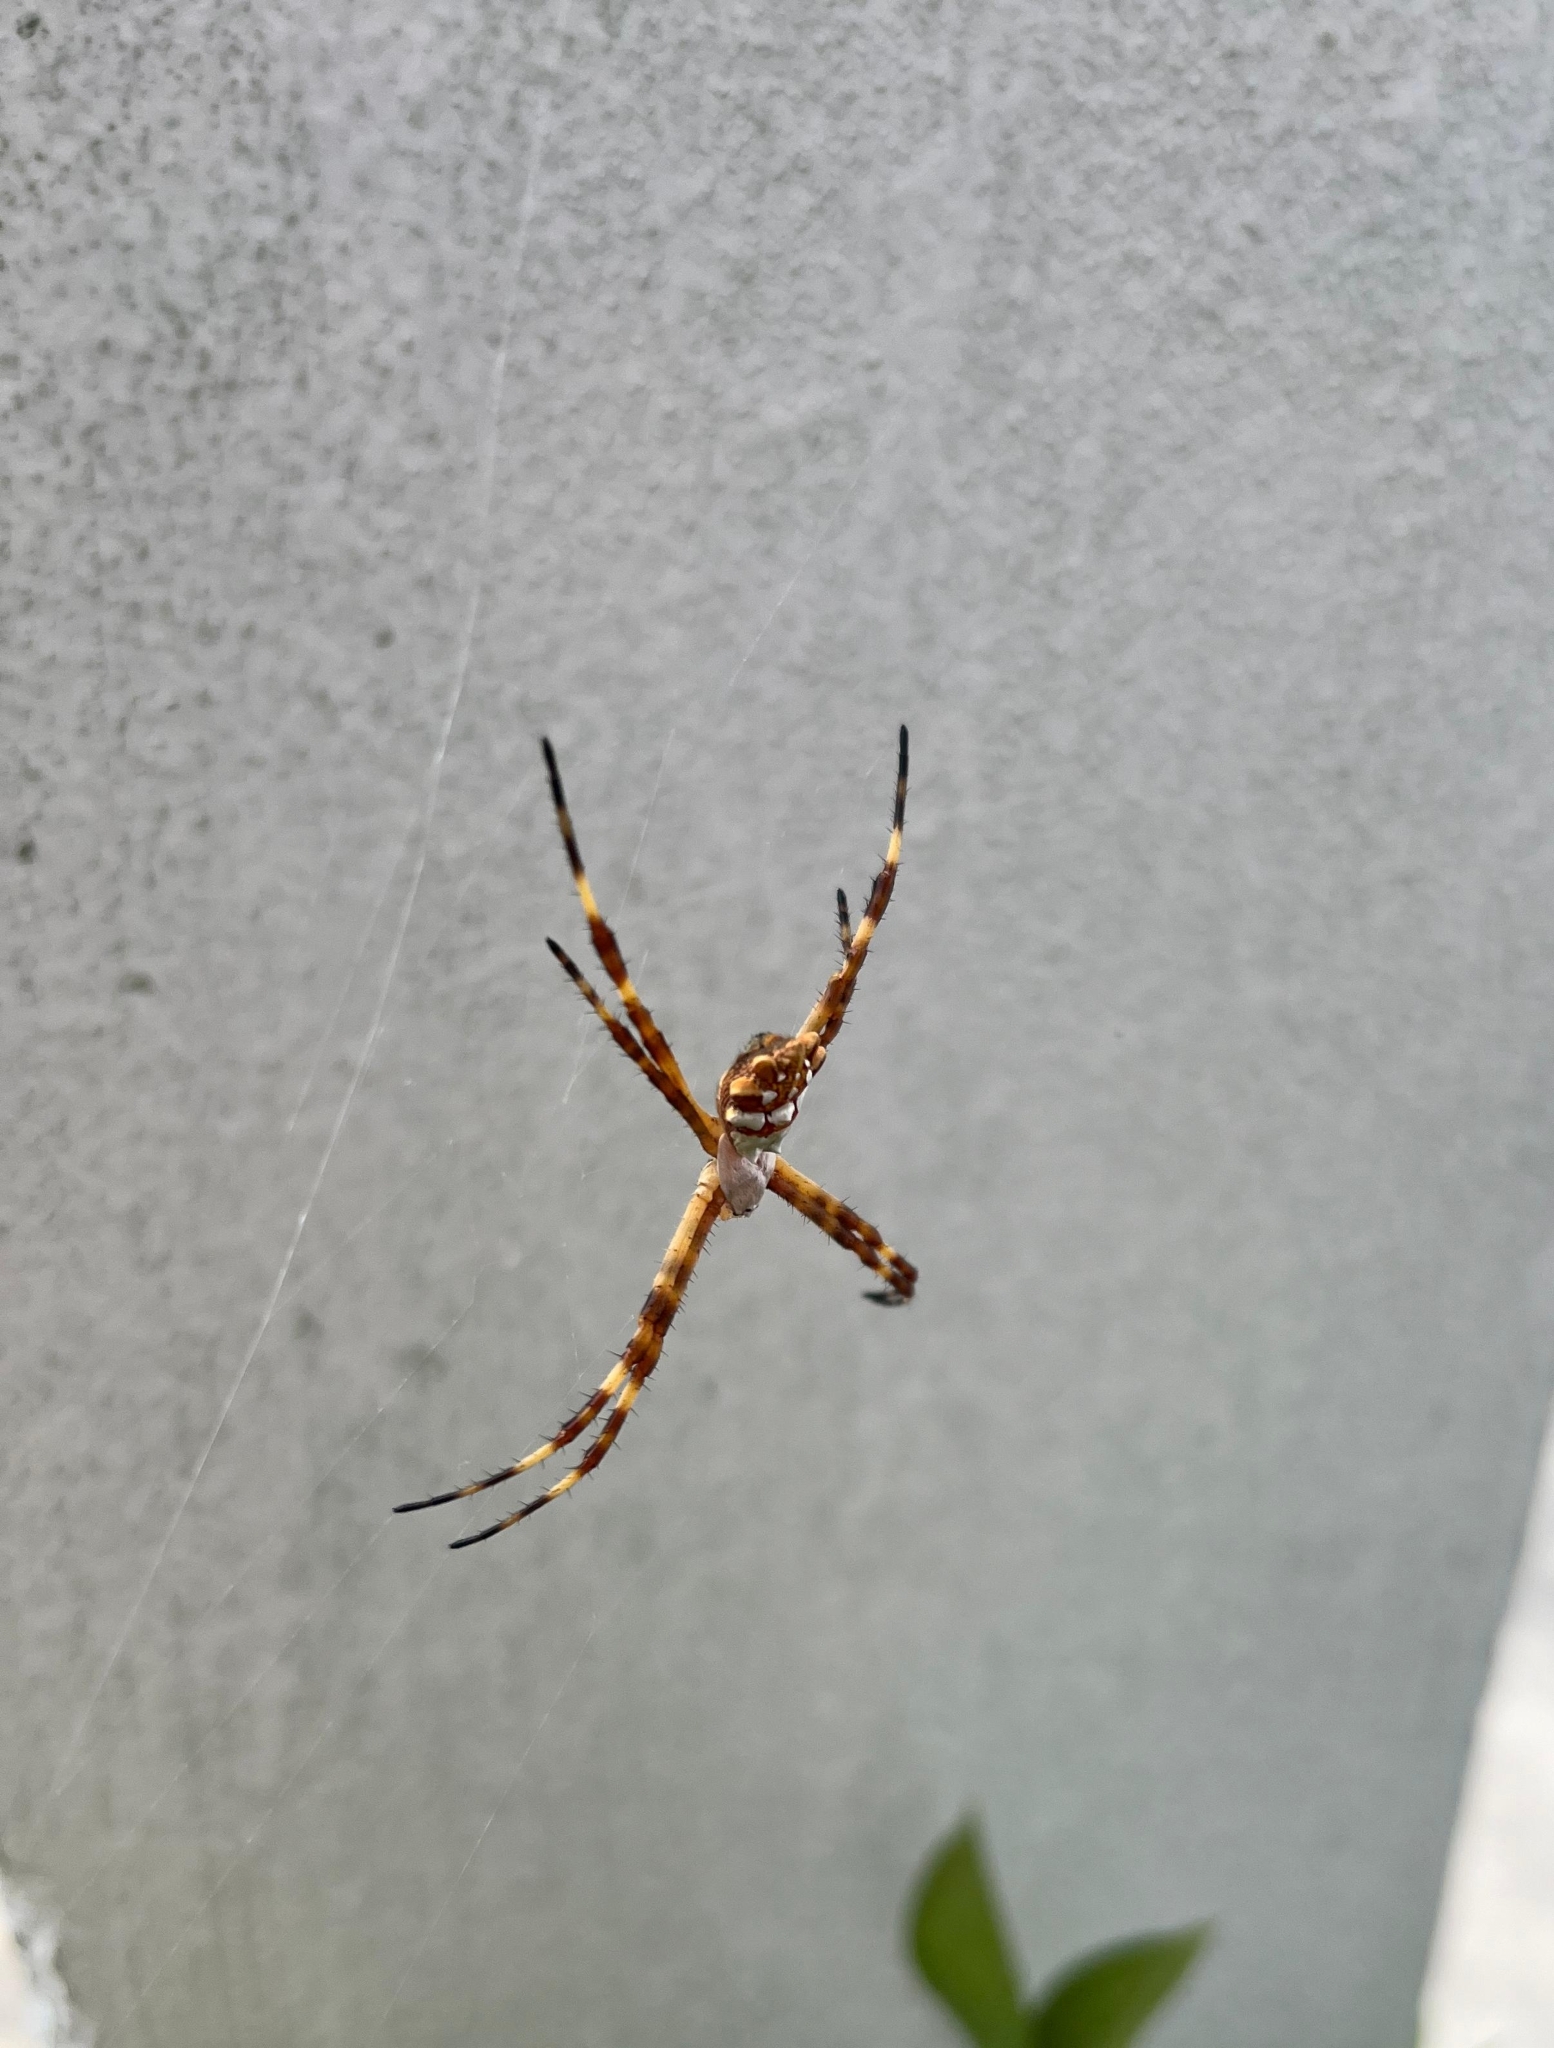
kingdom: Animalia
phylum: Arthropoda
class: Arachnida
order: Araneae
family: Araneidae
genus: Argiope
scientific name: Argiope argentata
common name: Orb weavers
